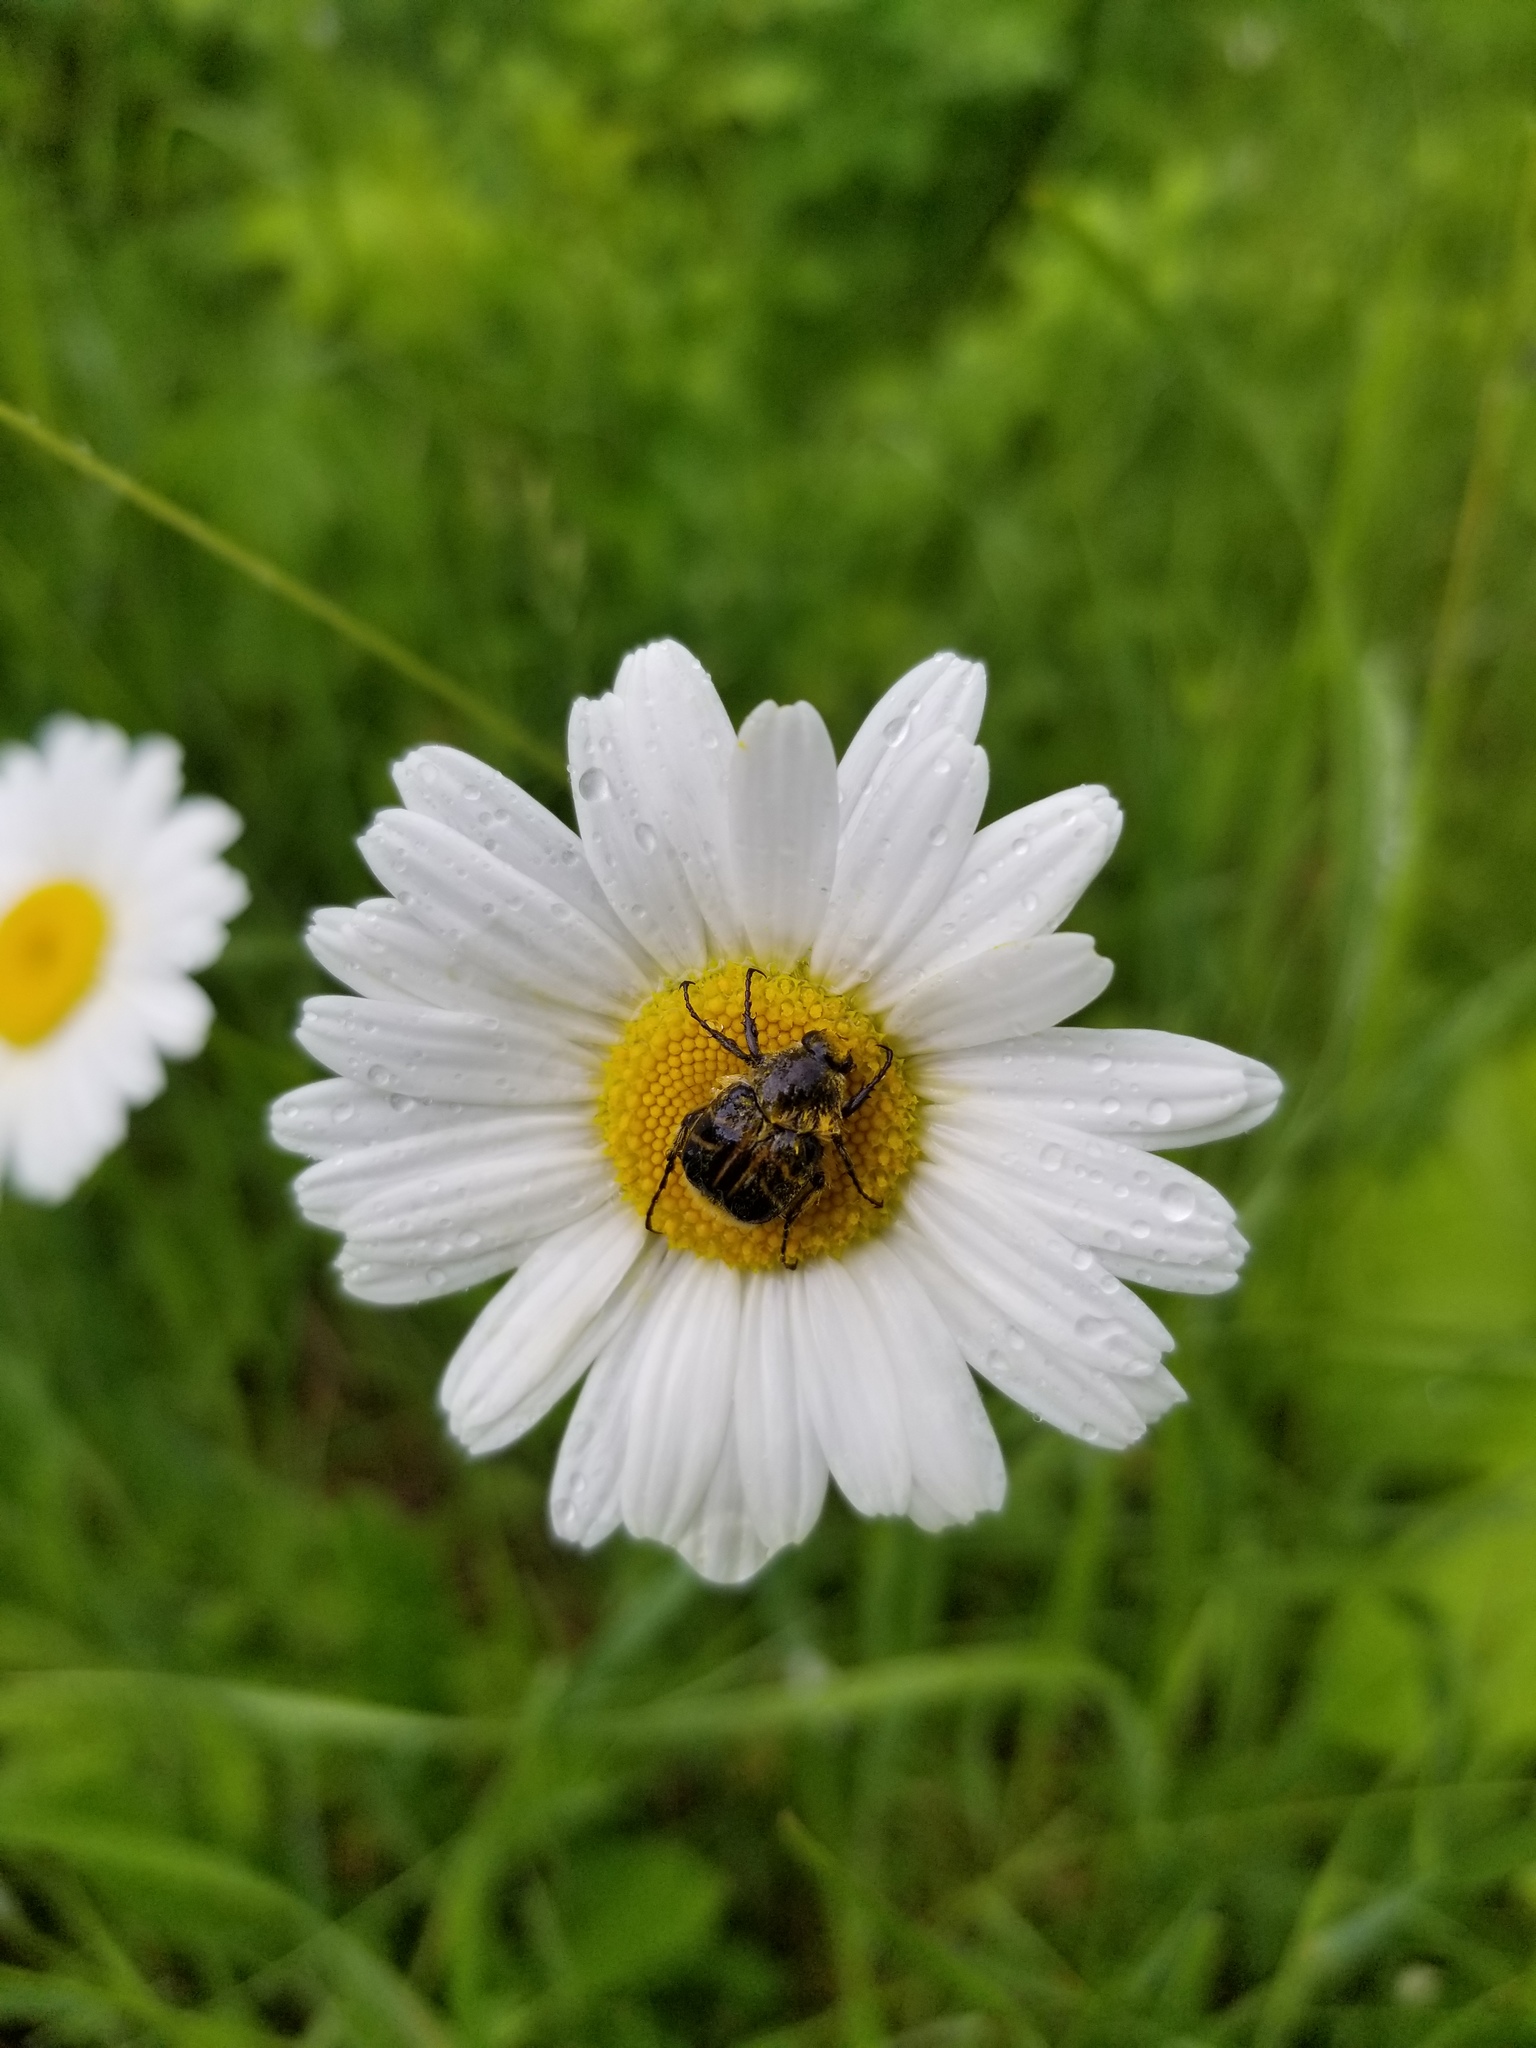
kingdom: Animalia
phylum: Arthropoda
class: Insecta
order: Coleoptera
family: Scarabaeidae
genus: Trichiotinus
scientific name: Trichiotinus assimilis
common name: Bee-mimic beetle
